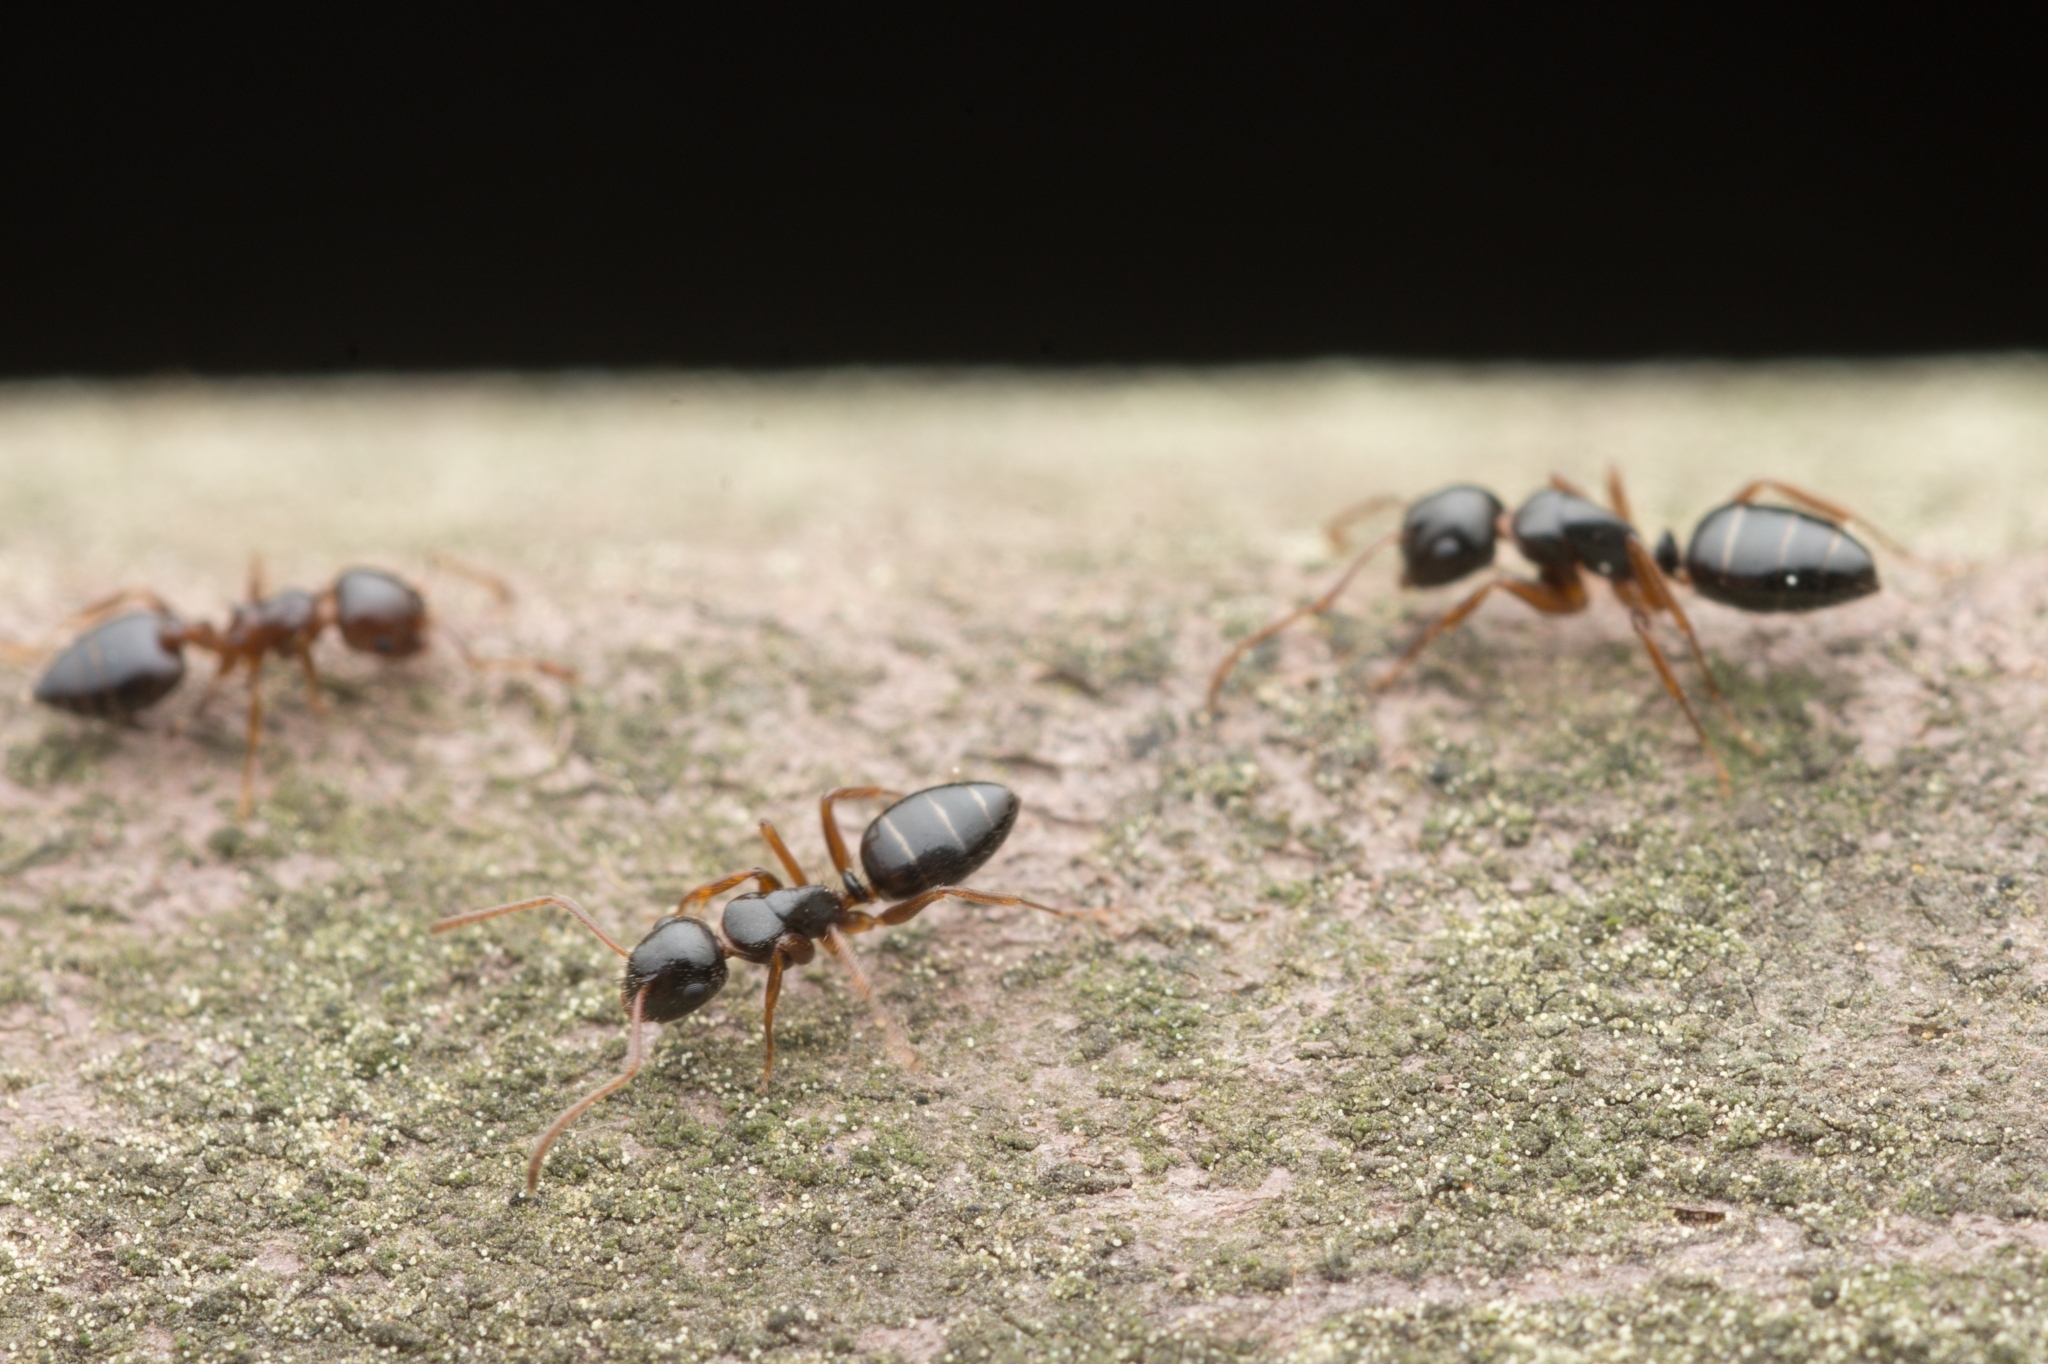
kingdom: Animalia
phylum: Arthropoda
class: Insecta
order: Hymenoptera
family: Formicidae
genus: Crematogaster
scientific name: Crematogaster matsumurai
